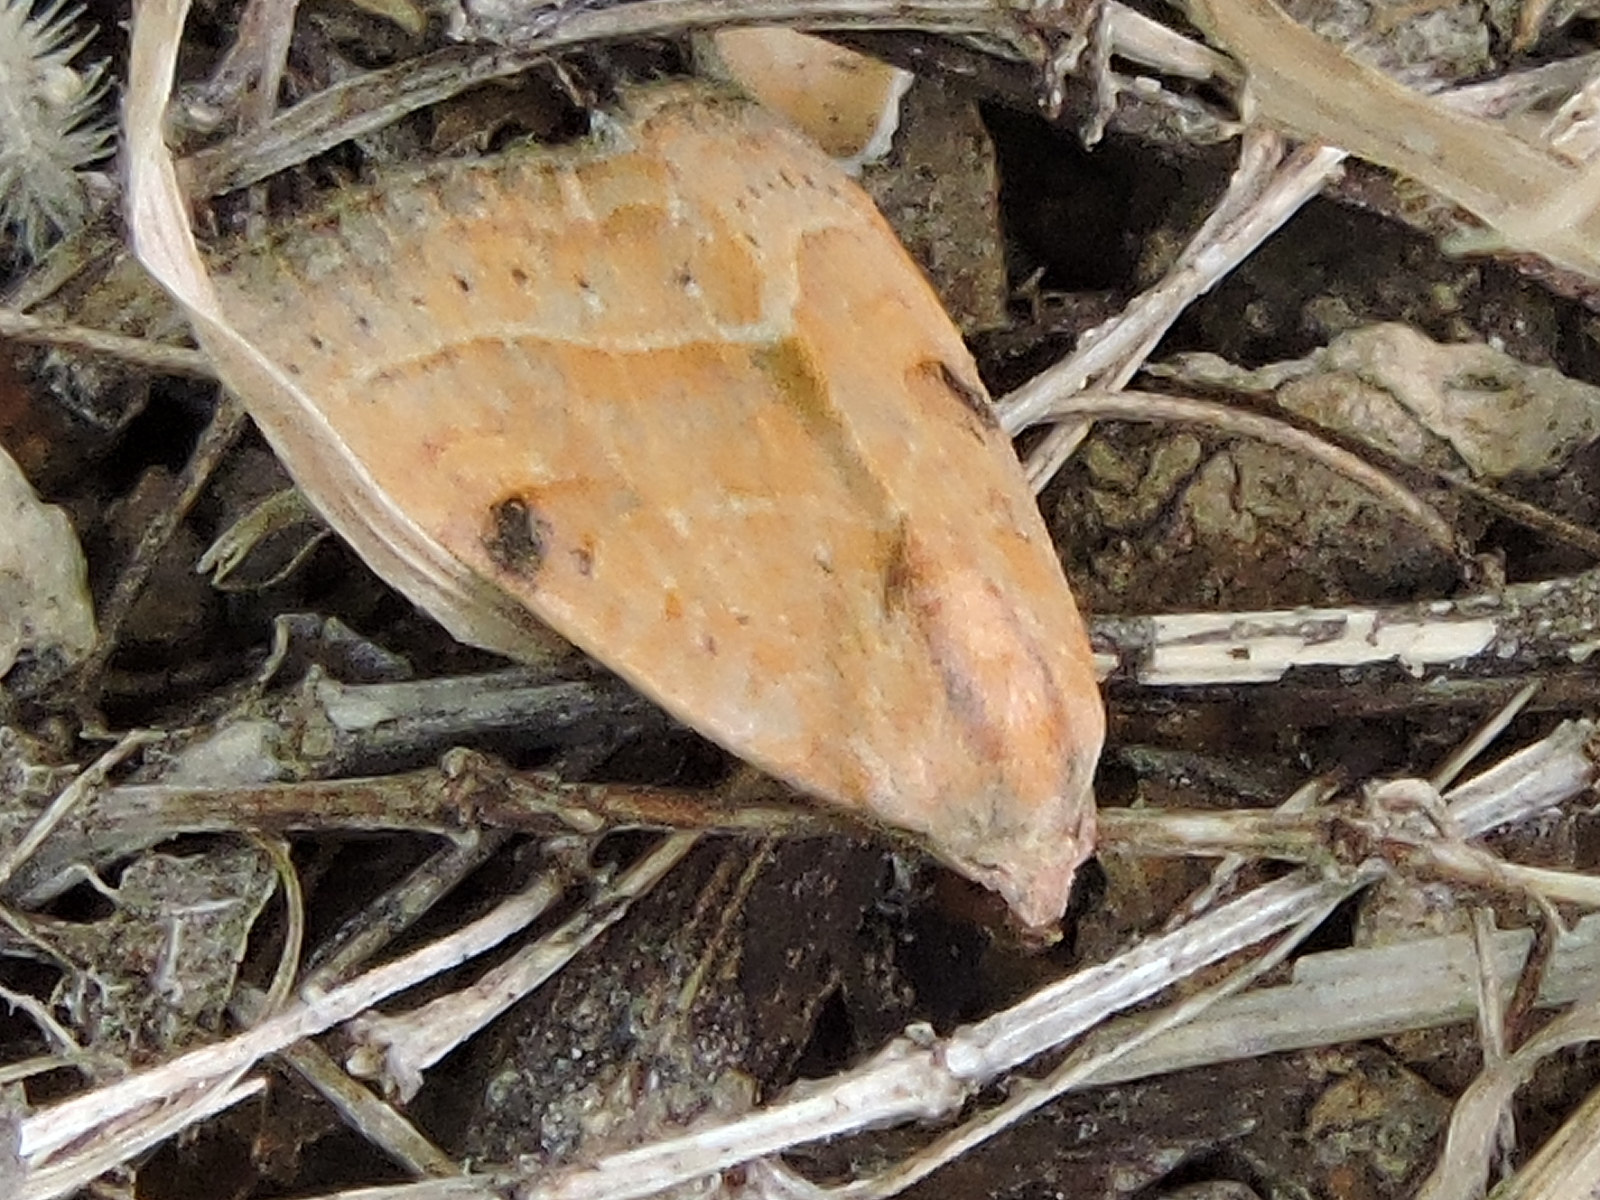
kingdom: Animalia
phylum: Arthropoda
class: Insecta
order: Lepidoptera
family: Noctuidae
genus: Galgula
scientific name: Galgula partita
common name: Wedgeling
